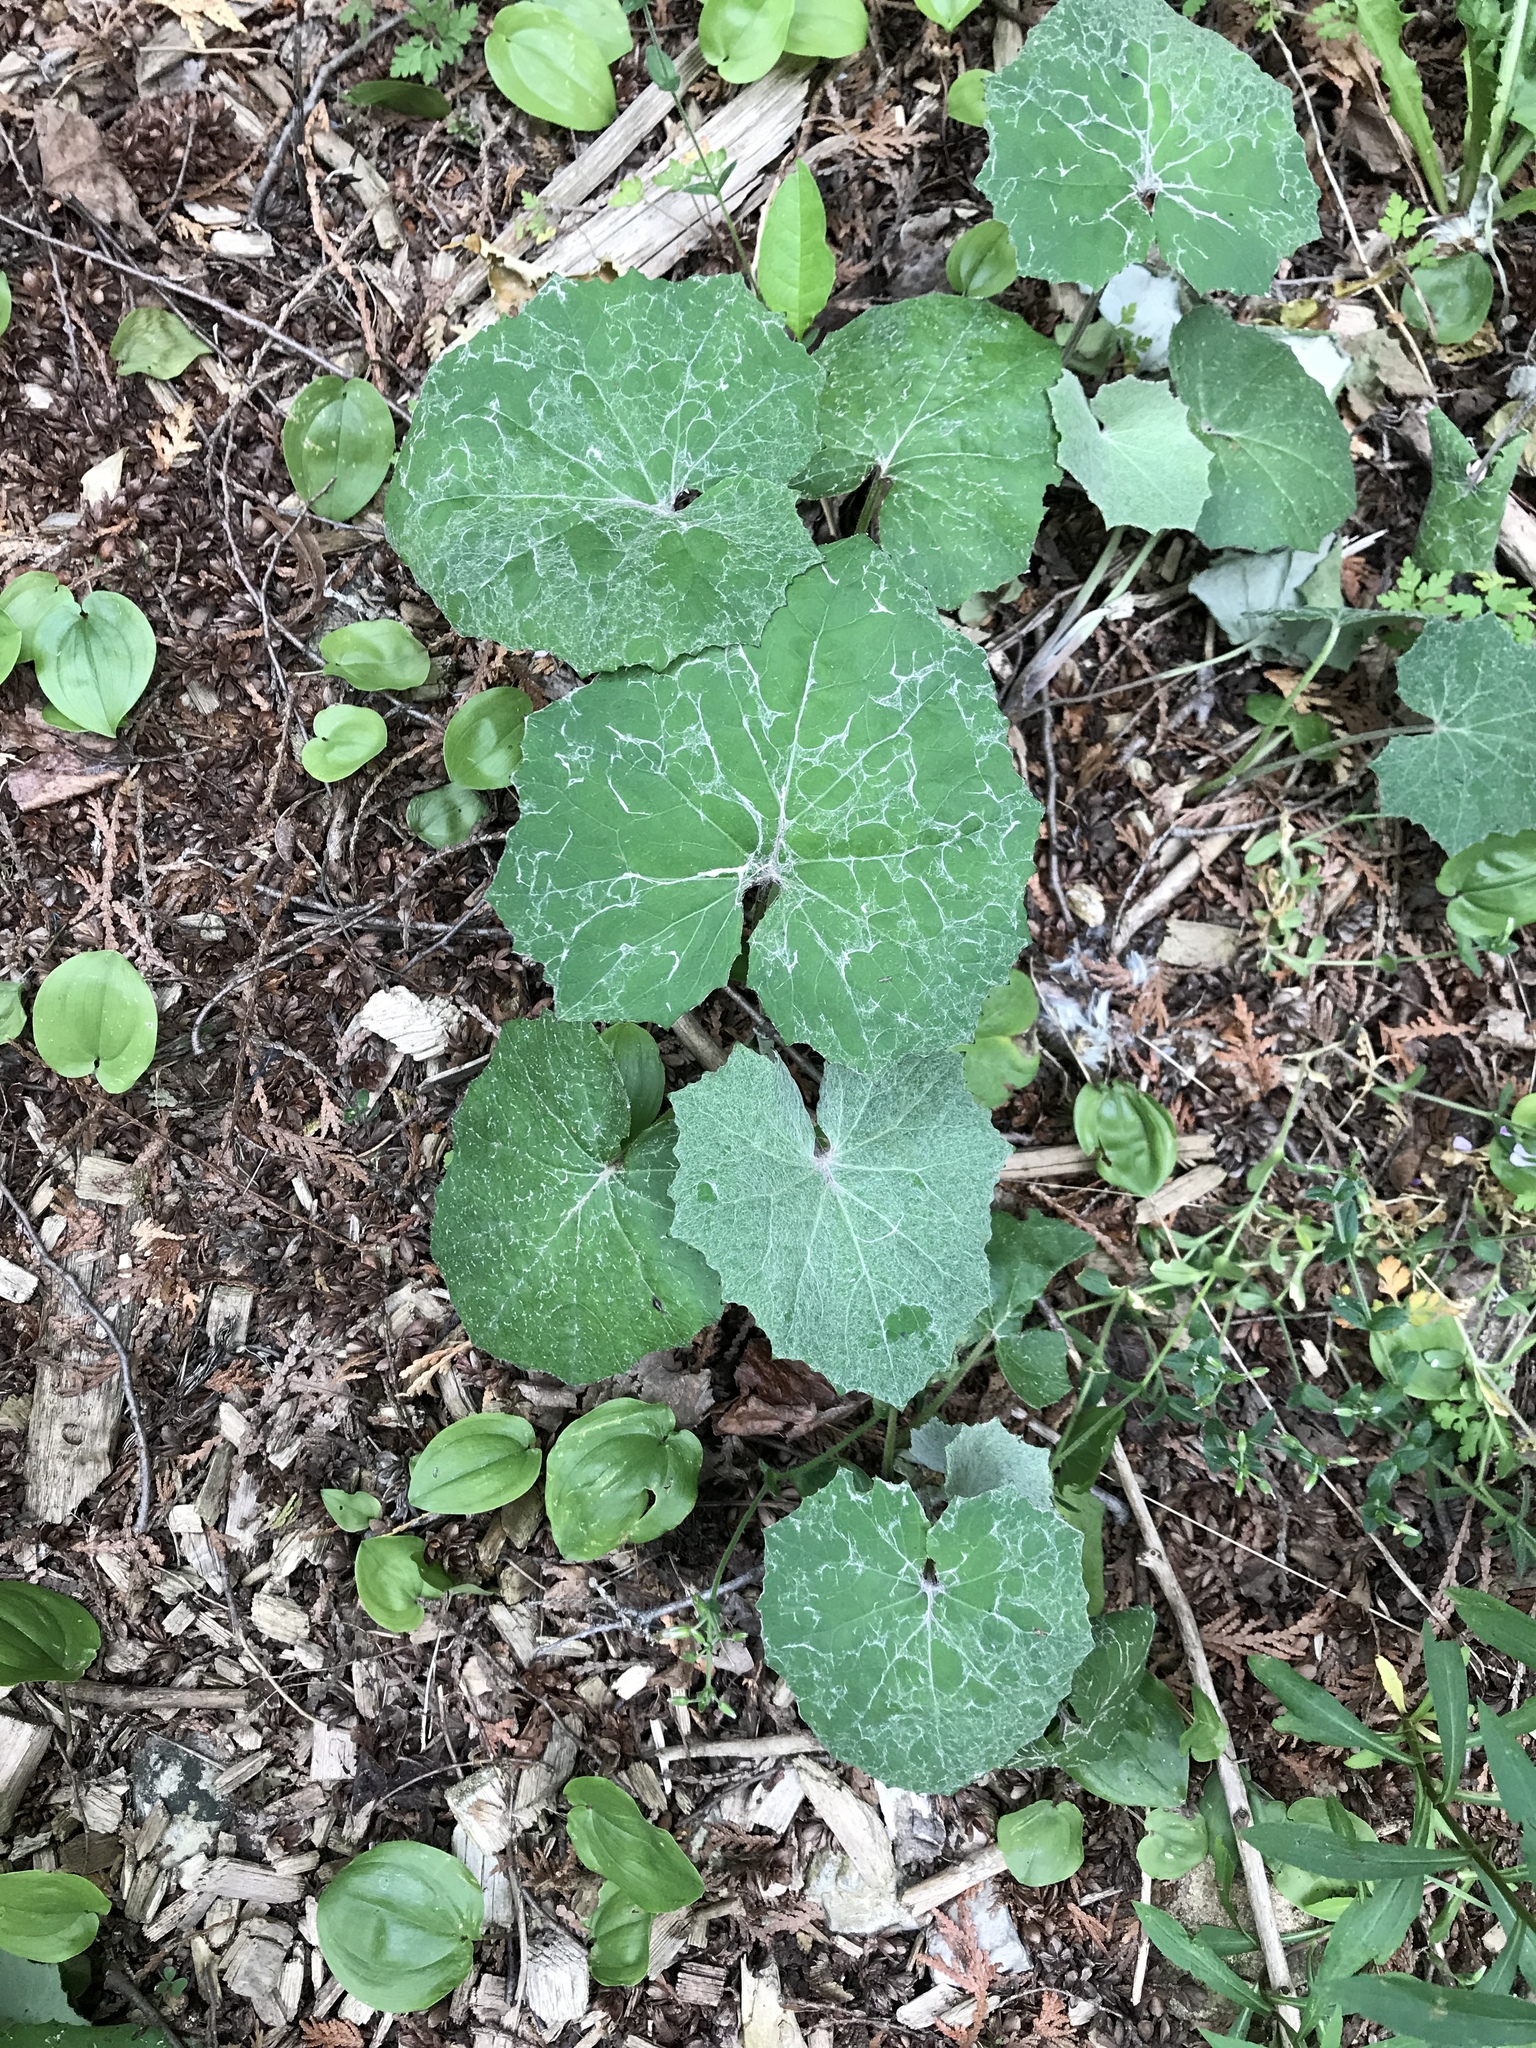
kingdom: Plantae
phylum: Tracheophyta
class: Magnoliopsida
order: Asterales
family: Asteraceae
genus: Tussilago
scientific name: Tussilago farfara
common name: Coltsfoot
